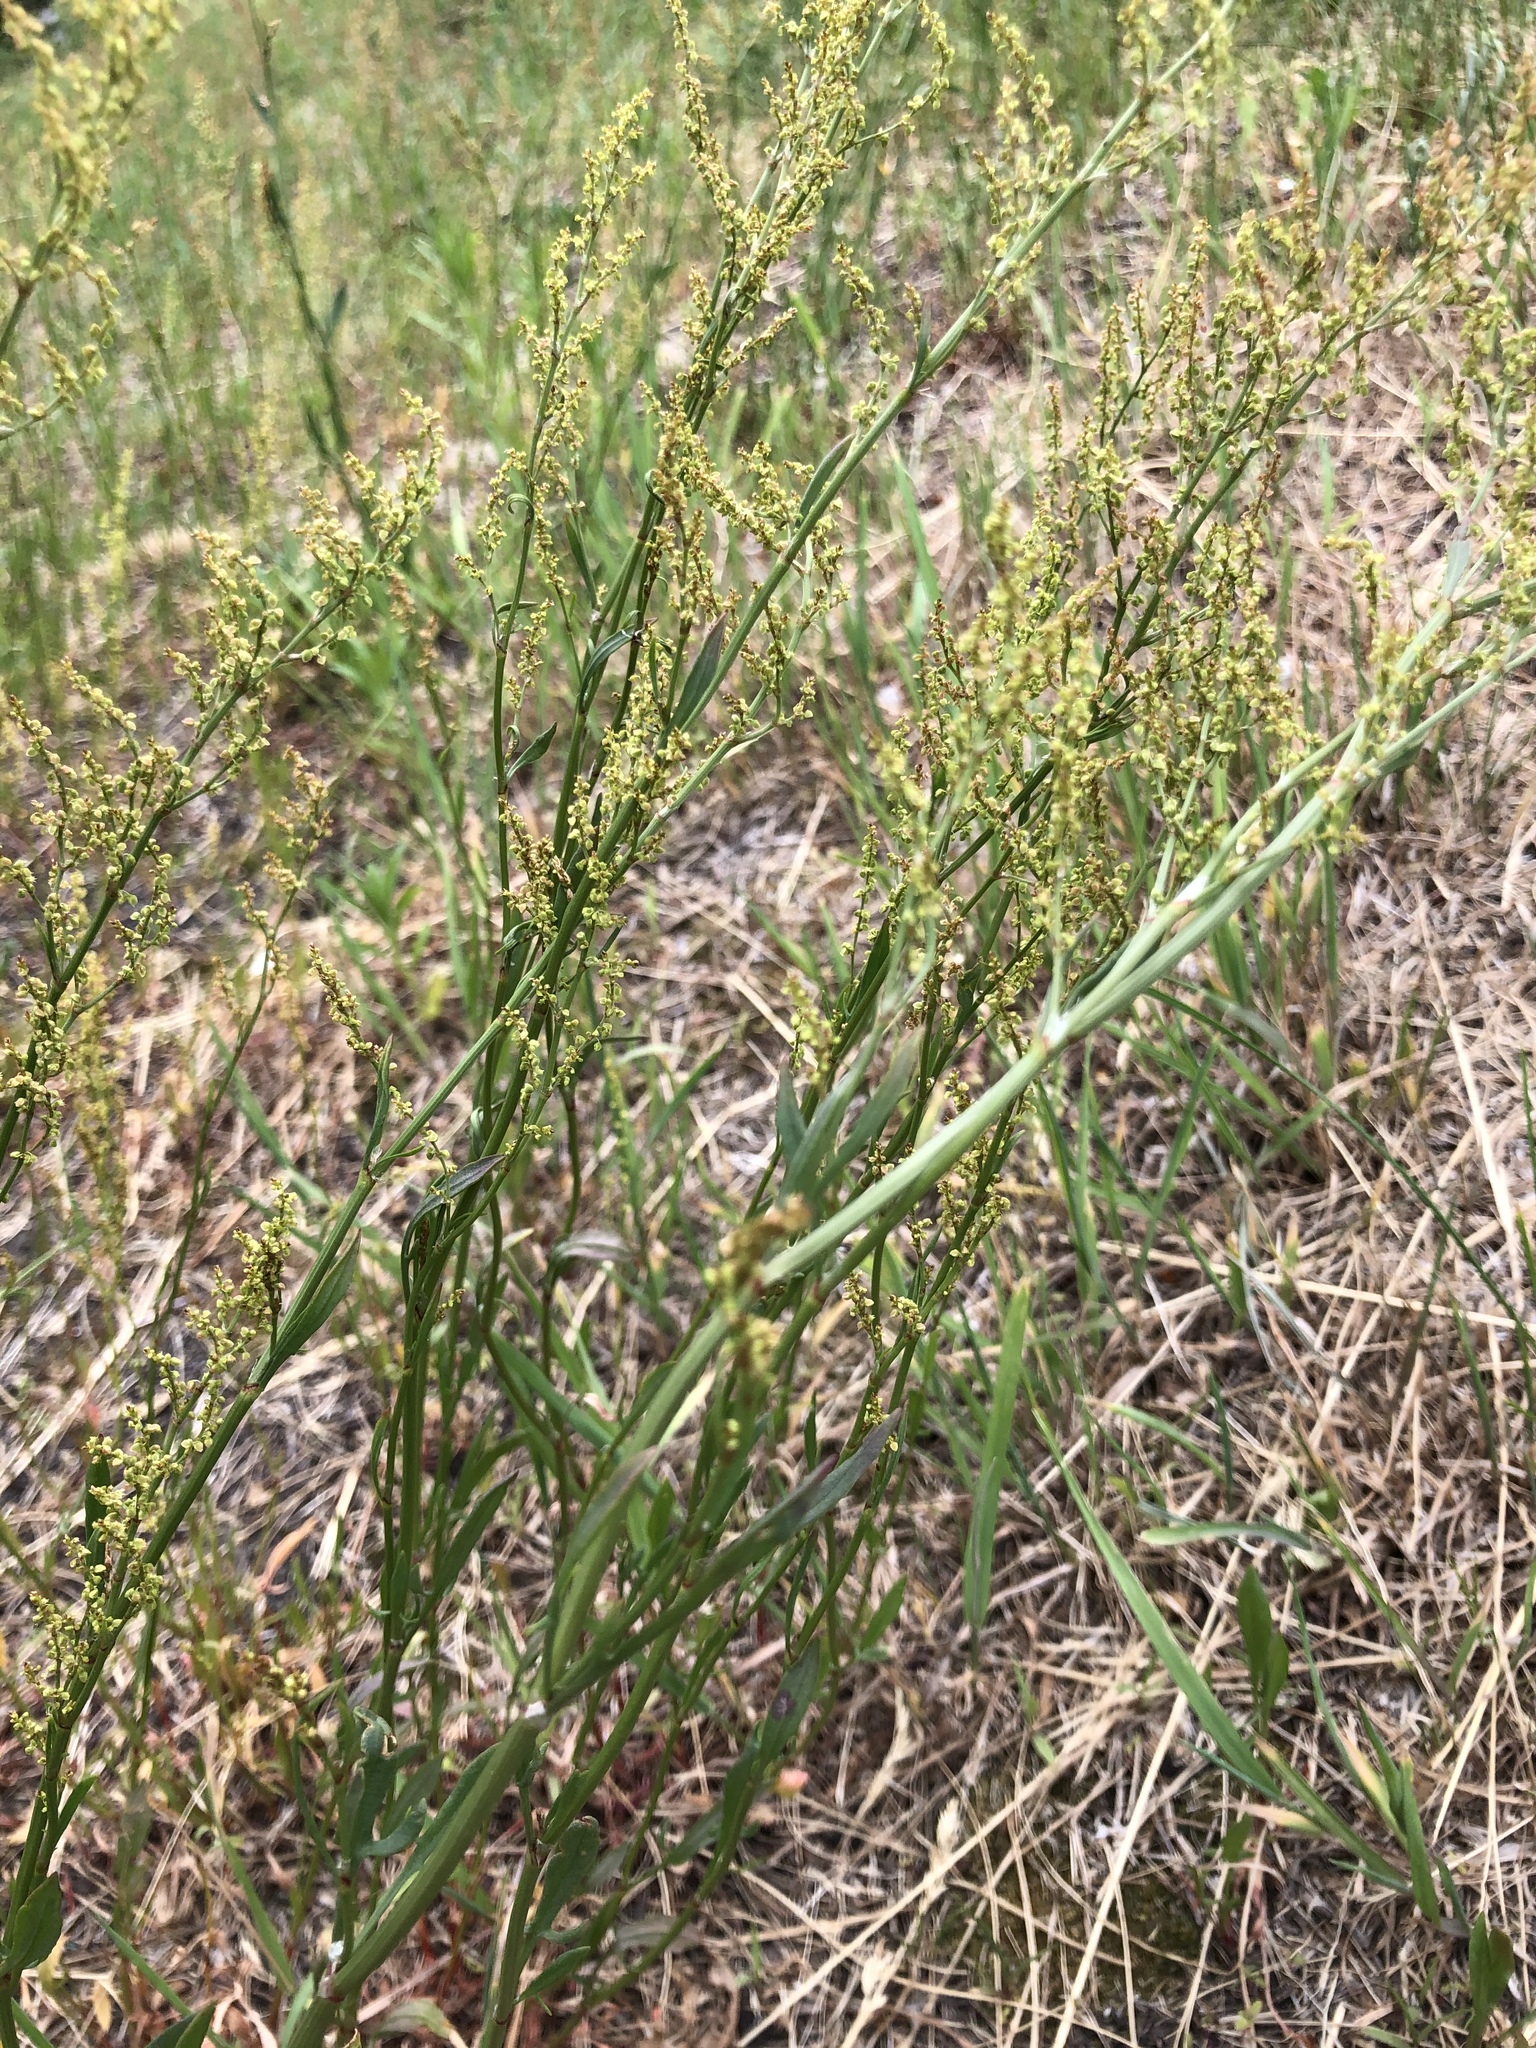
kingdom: Plantae
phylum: Tracheophyta
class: Magnoliopsida
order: Caryophyllales
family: Polygonaceae
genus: Rumex
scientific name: Rumex acetosella
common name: Common sheep sorrel
